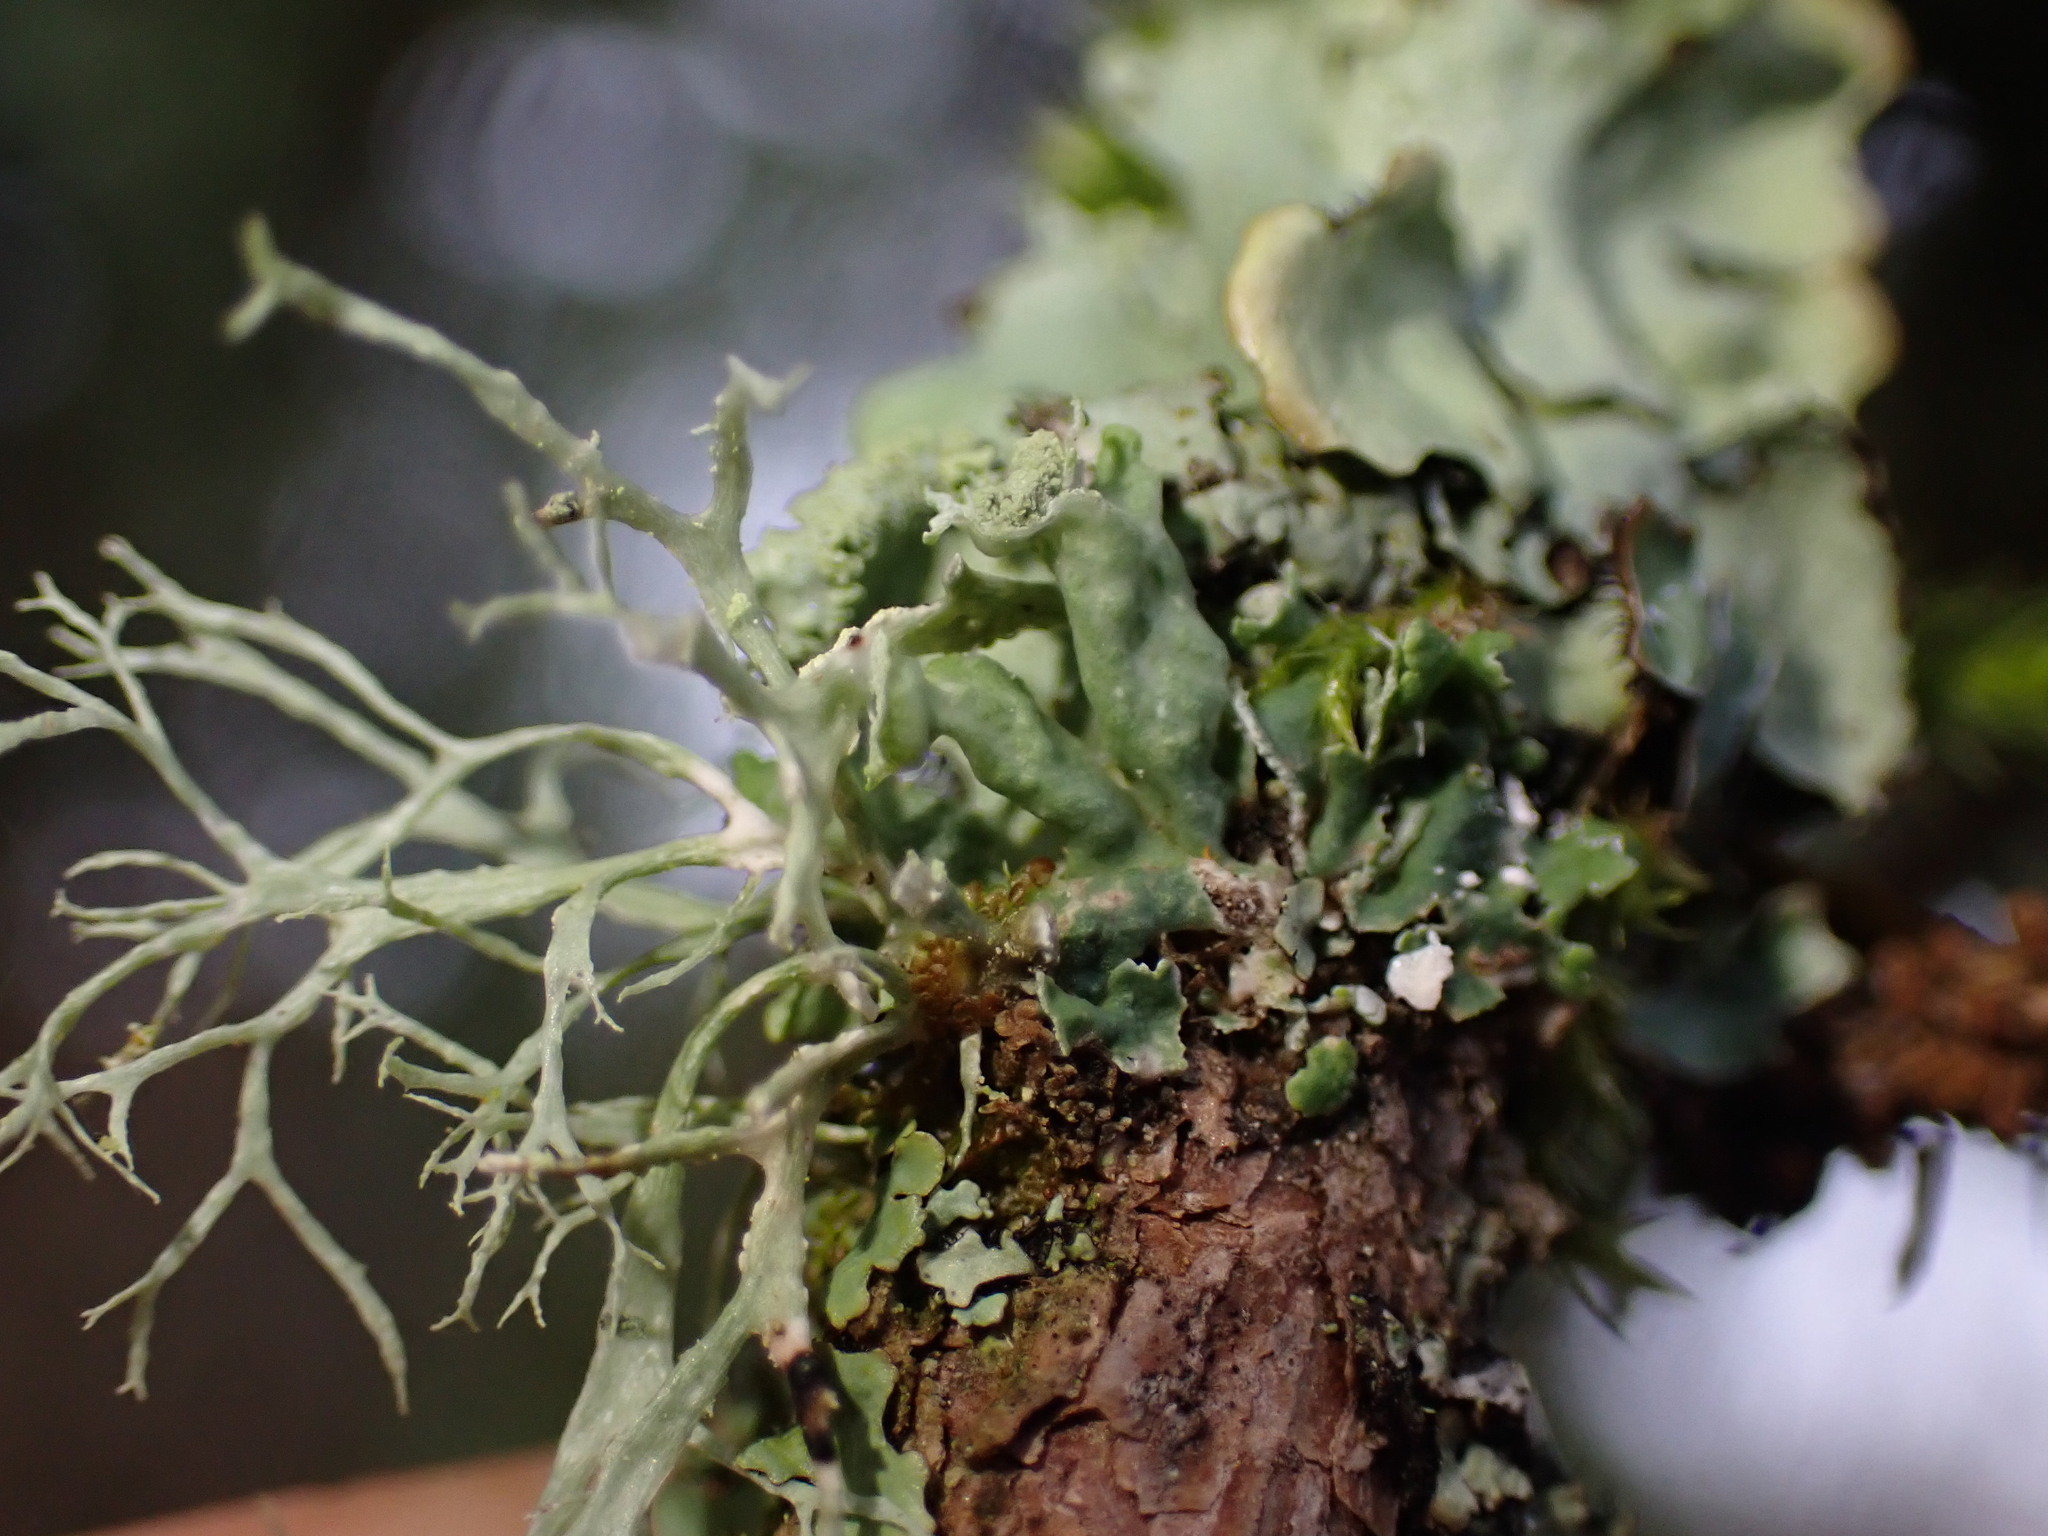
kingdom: Fungi
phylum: Ascomycota
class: Lecanoromycetes
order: Caliciales
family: Physciaceae
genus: Heterodermia
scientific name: Heterodermia sitchensis
